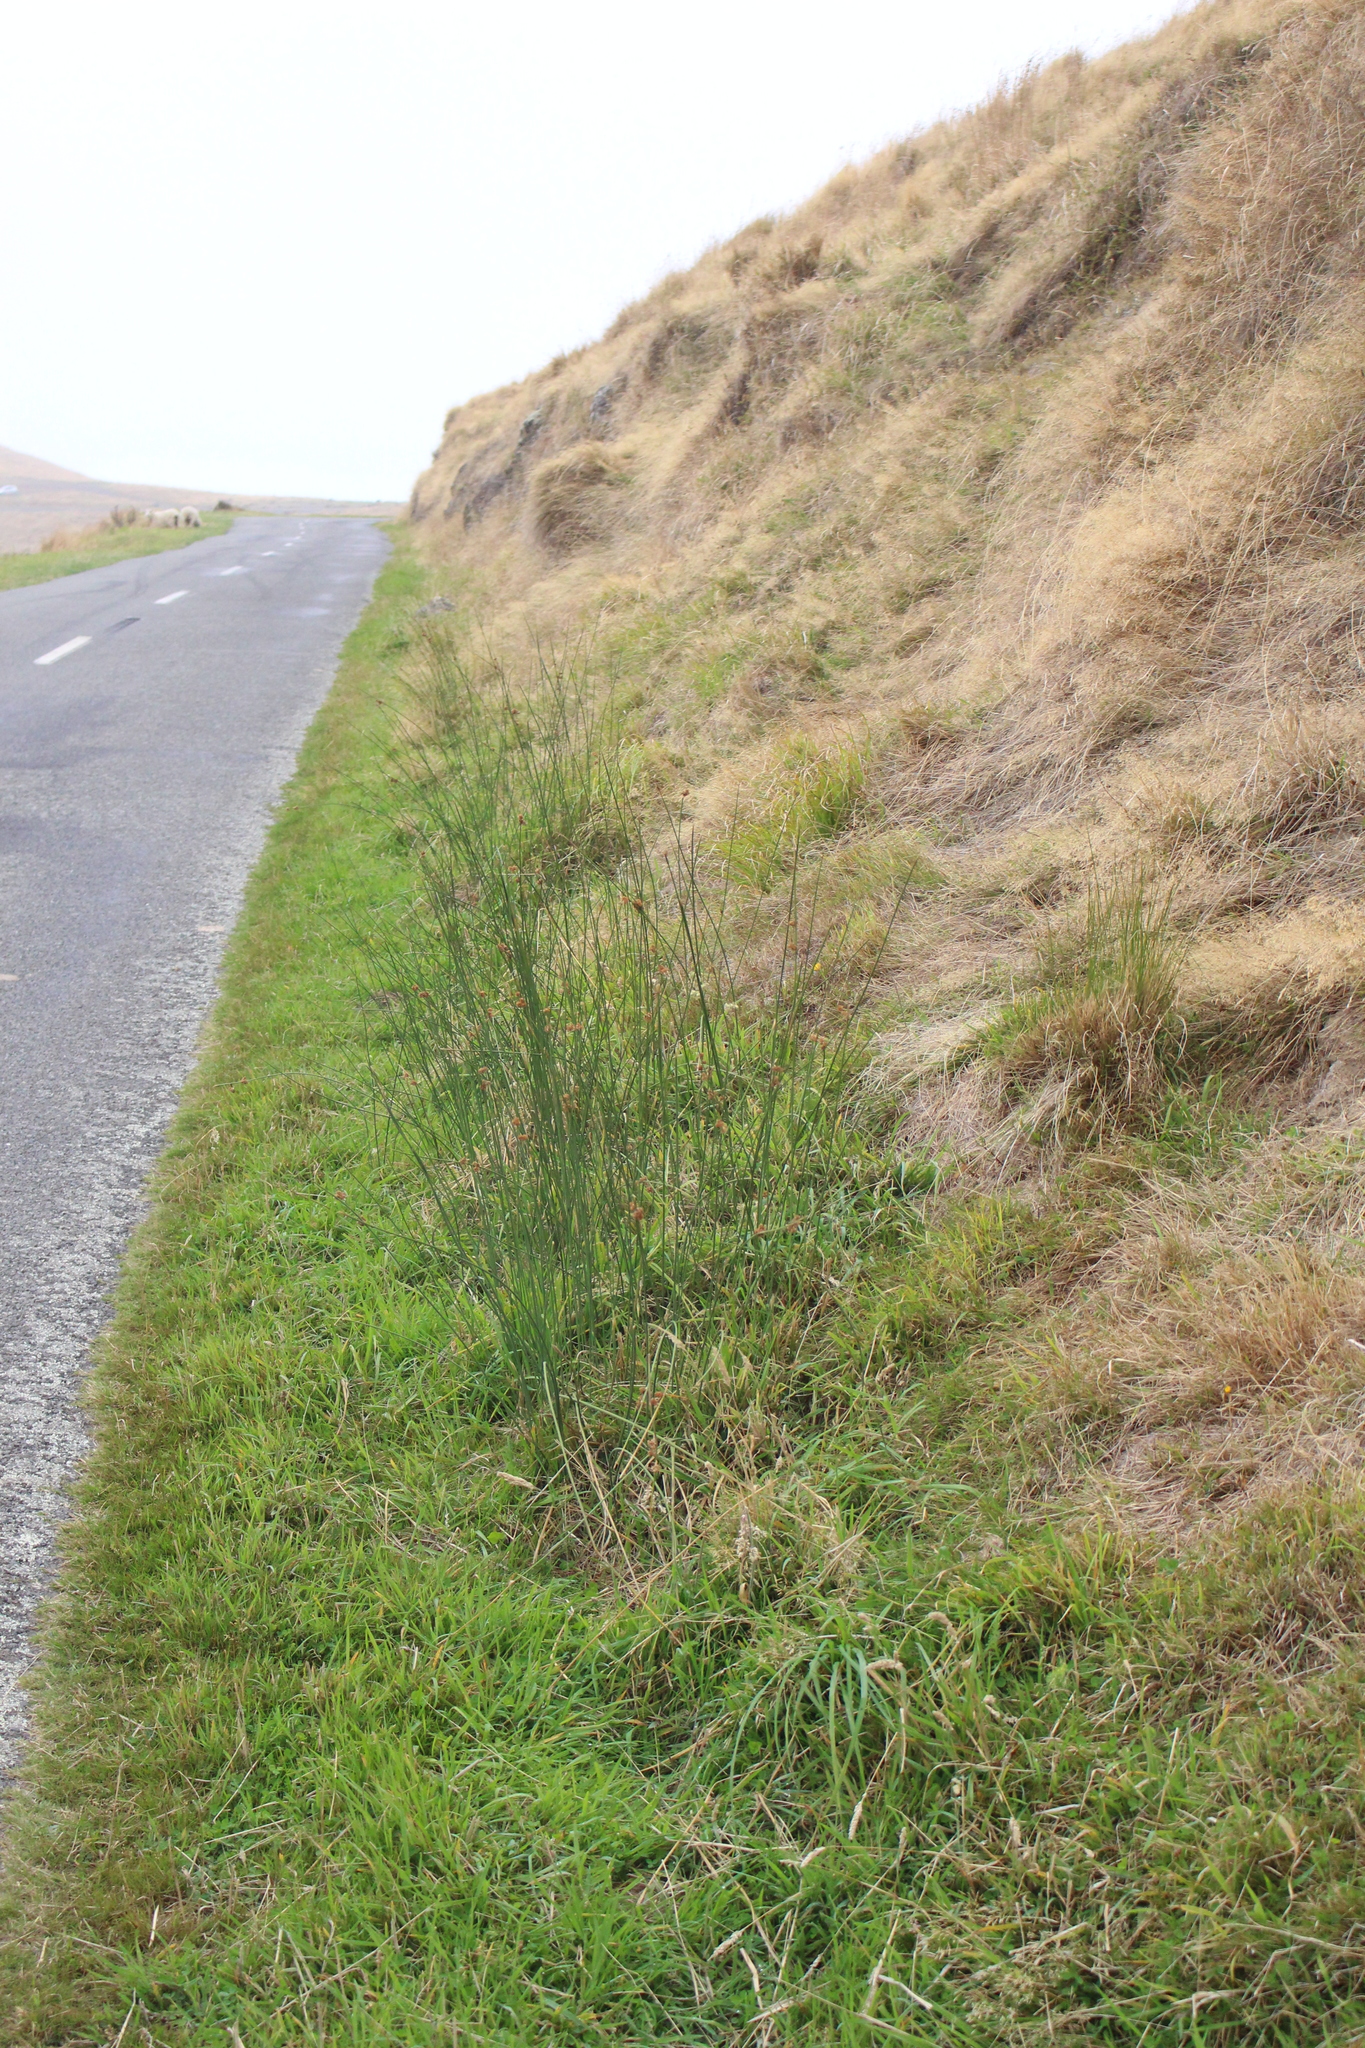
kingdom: Plantae
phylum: Tracheophyta
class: Liliopsida
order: Poales
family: Juncaceae
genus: Juncus
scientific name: Juncus edgariae
